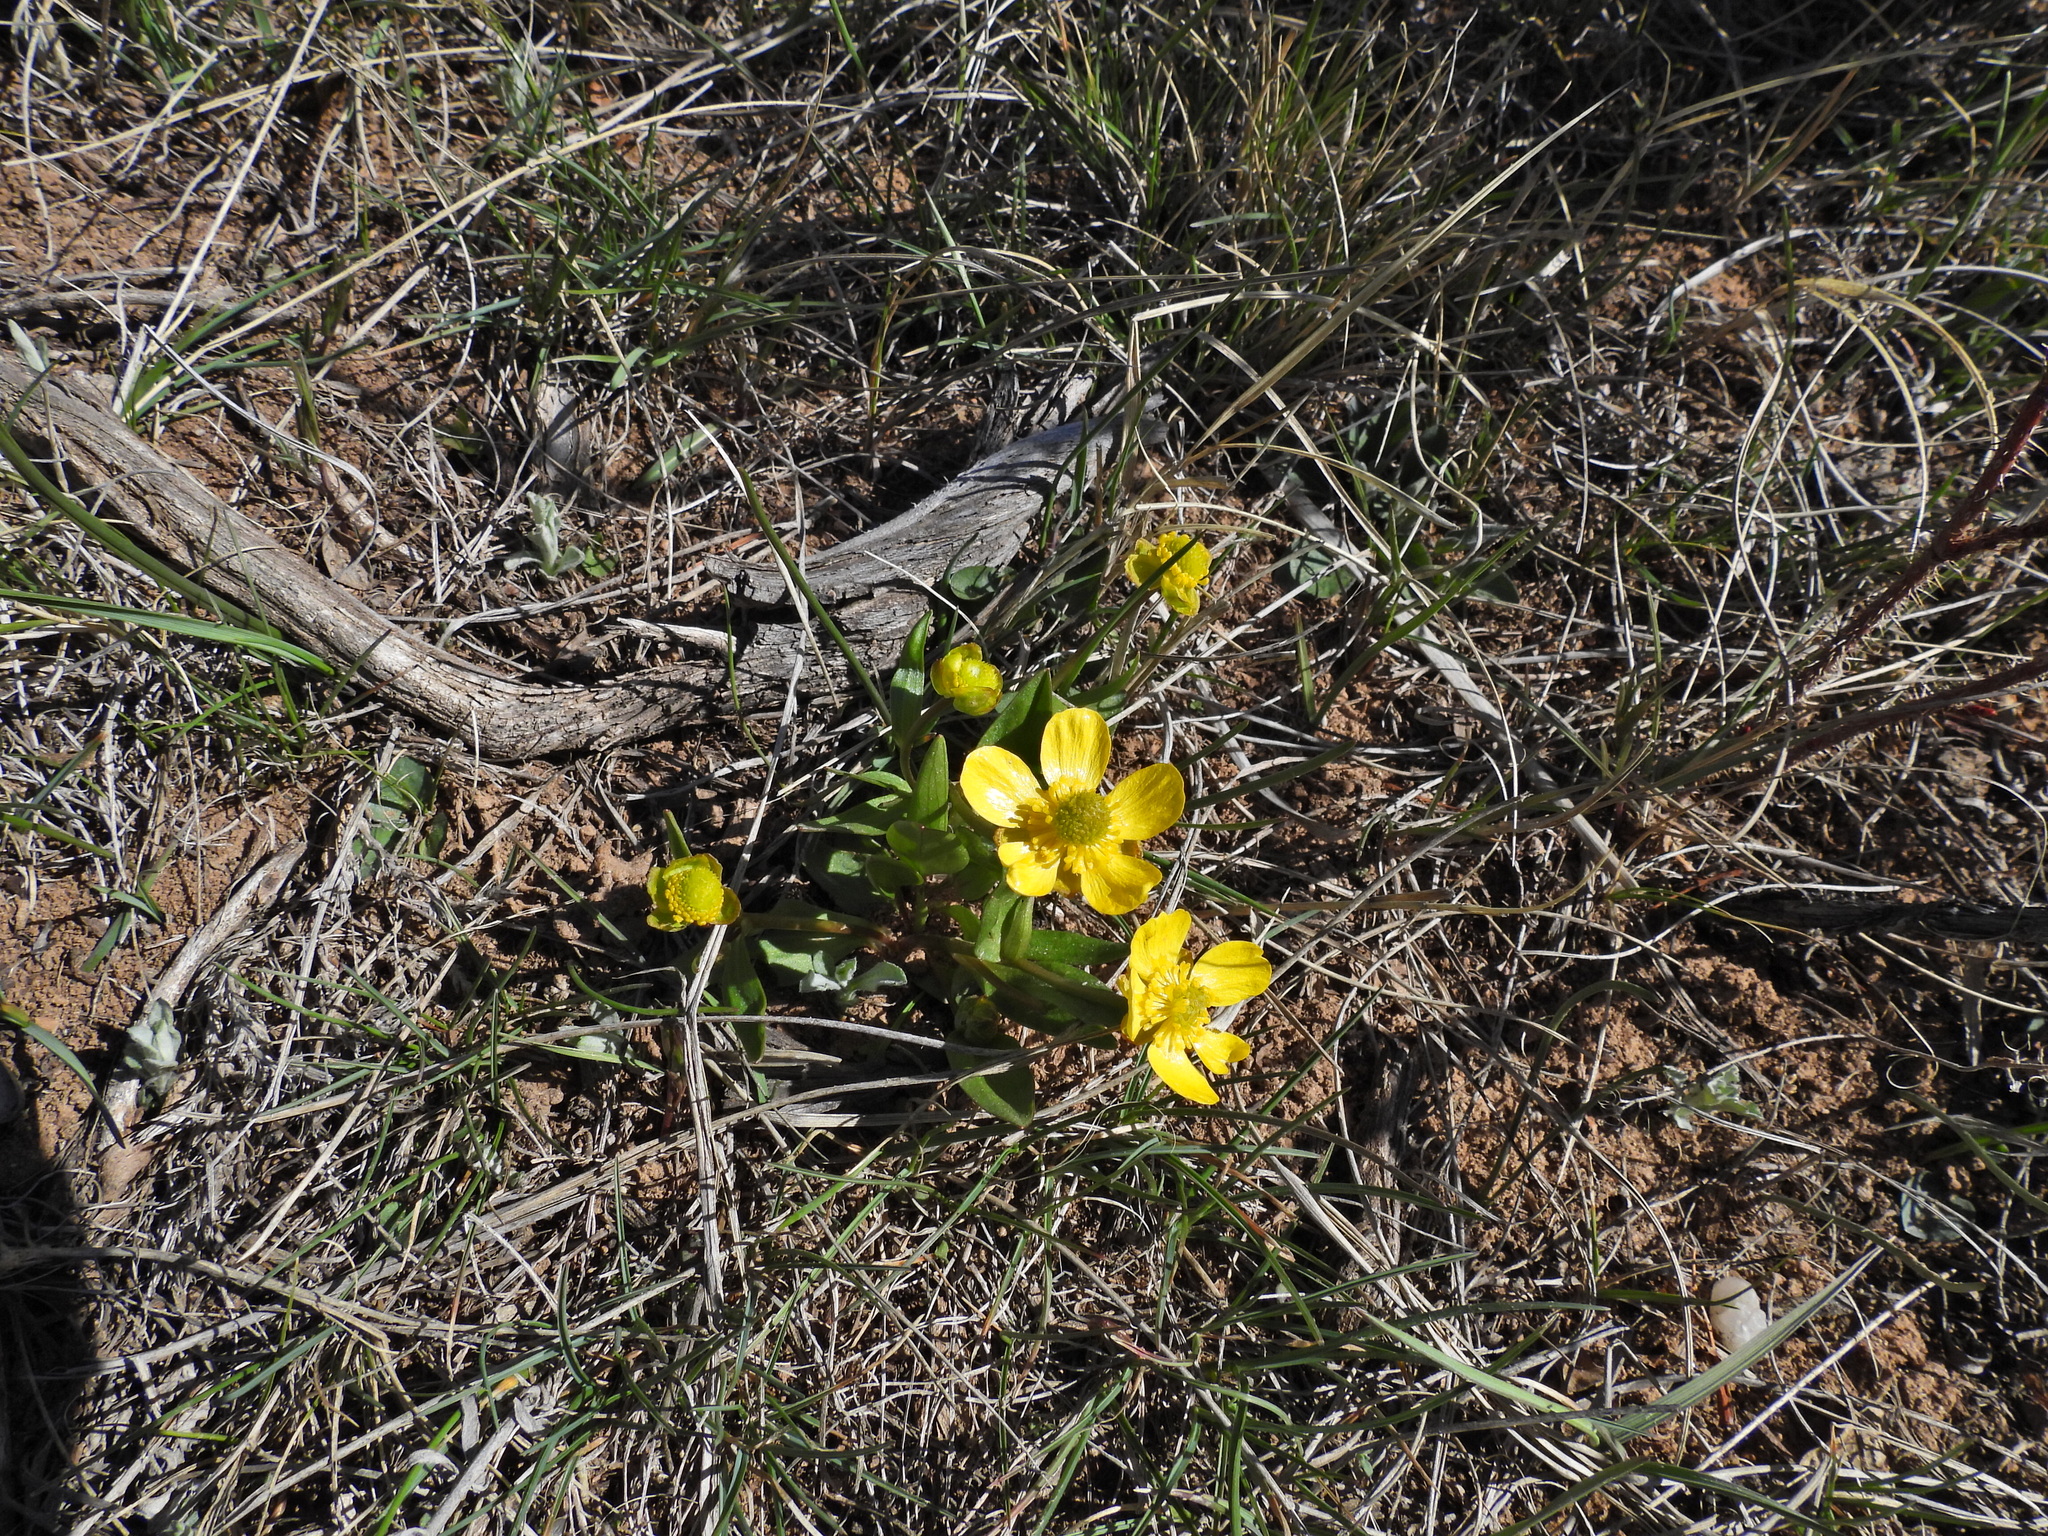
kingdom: Plantae
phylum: Tracheophyta
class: Magnoliopsida
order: Ranunculales
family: Ranunculaceae
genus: Ranunculus
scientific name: Ranunculus glaberrimus
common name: Sagebrush buttercup
